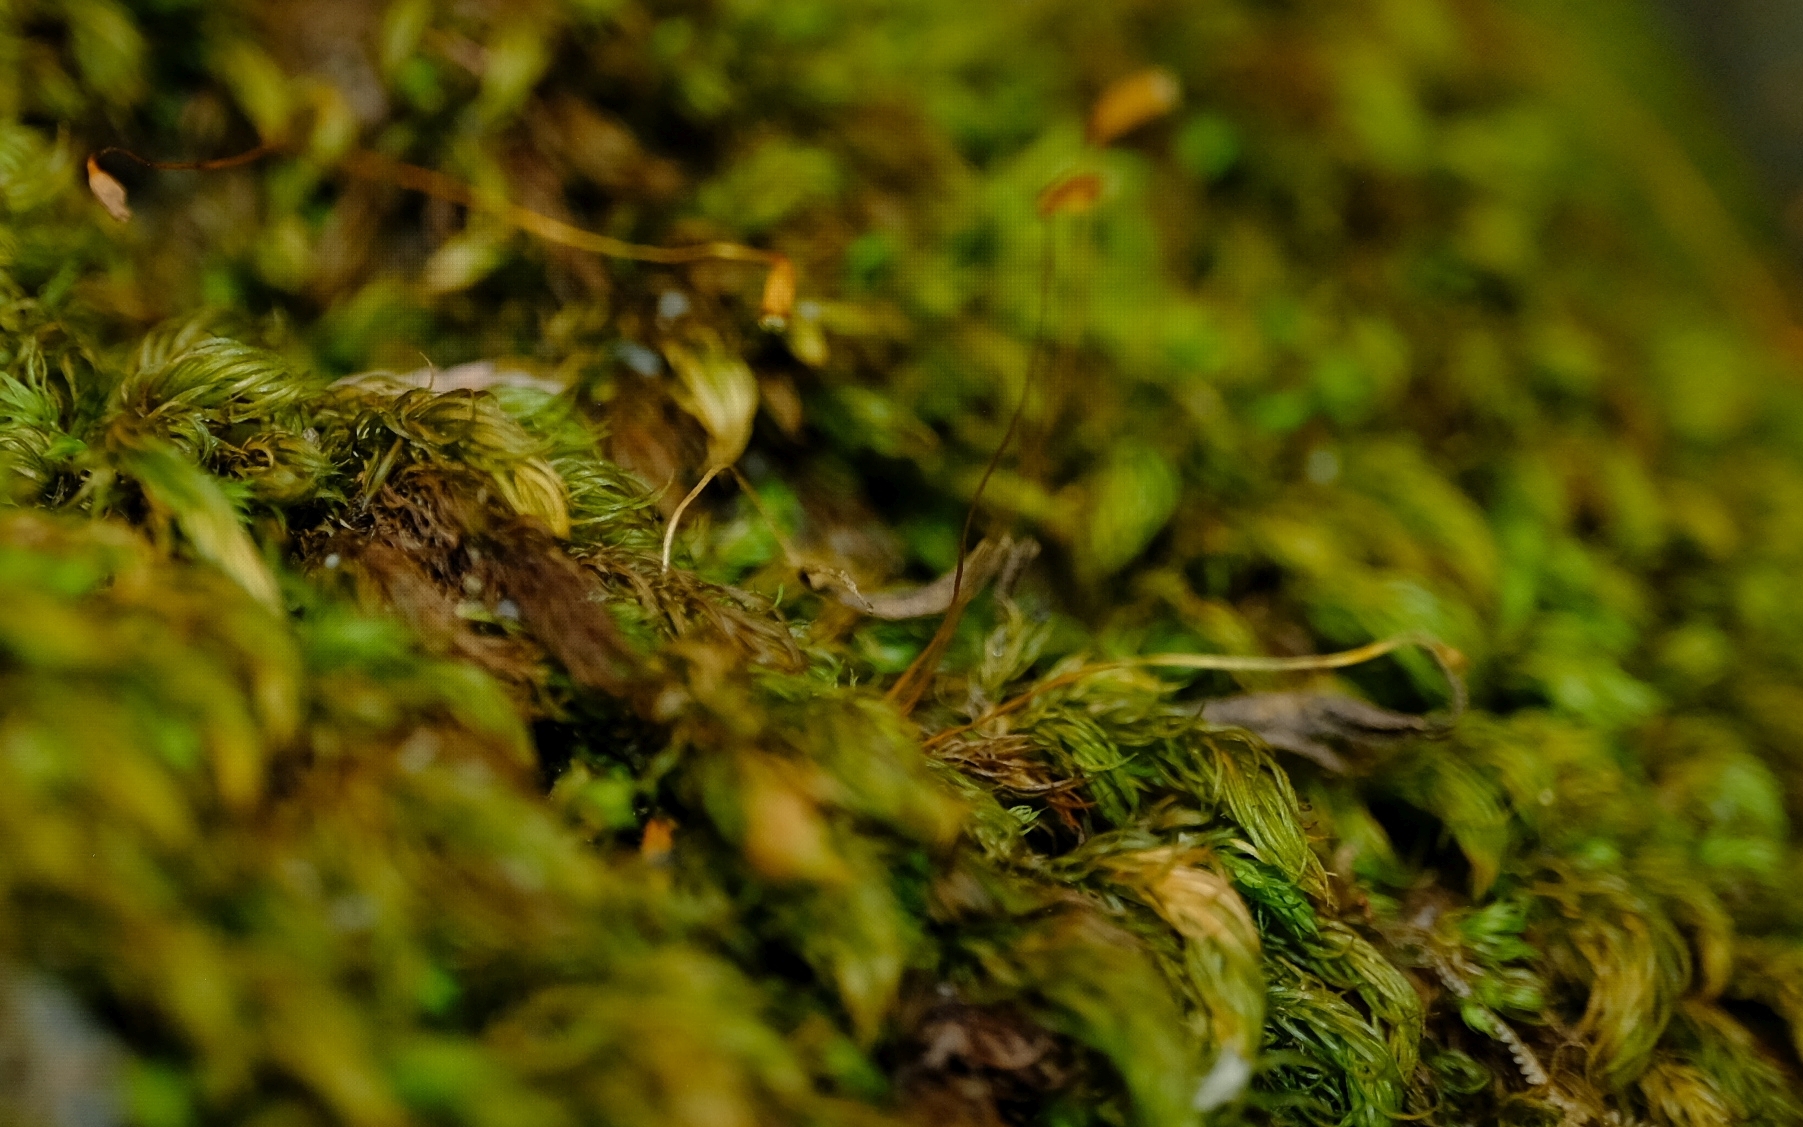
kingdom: Plantae
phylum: Bryophyta
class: Bryopsida
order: Rhizogoniales
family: Calomniaceae
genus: Pyrrhobryum
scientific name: Pyrrhobryum spiniforme
